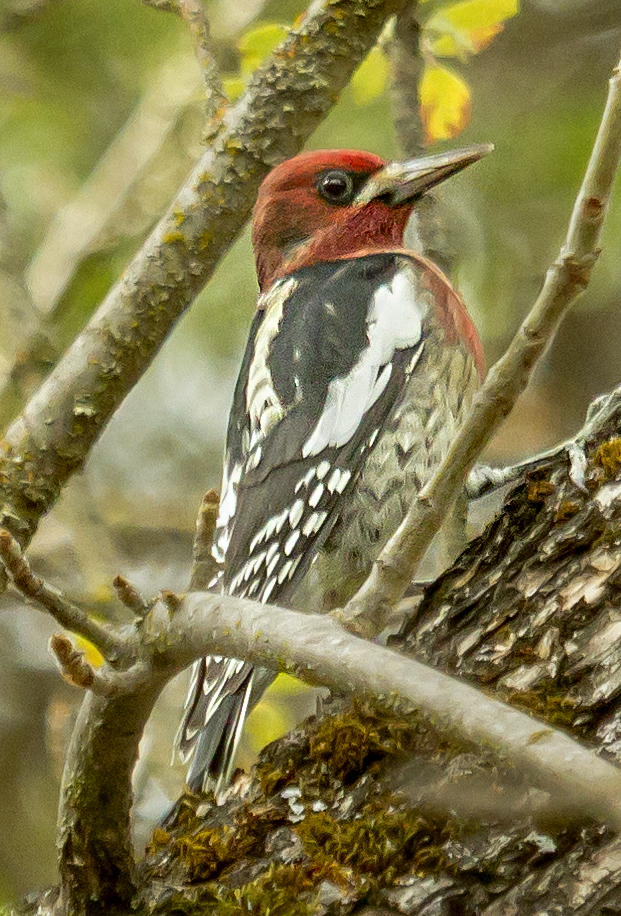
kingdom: Animalia
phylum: Chordata
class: Aves
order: Piciformes
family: Picidae
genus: Sphyrapicus
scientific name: Sphyrapicus ruber
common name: Red-breasted sapsucker
